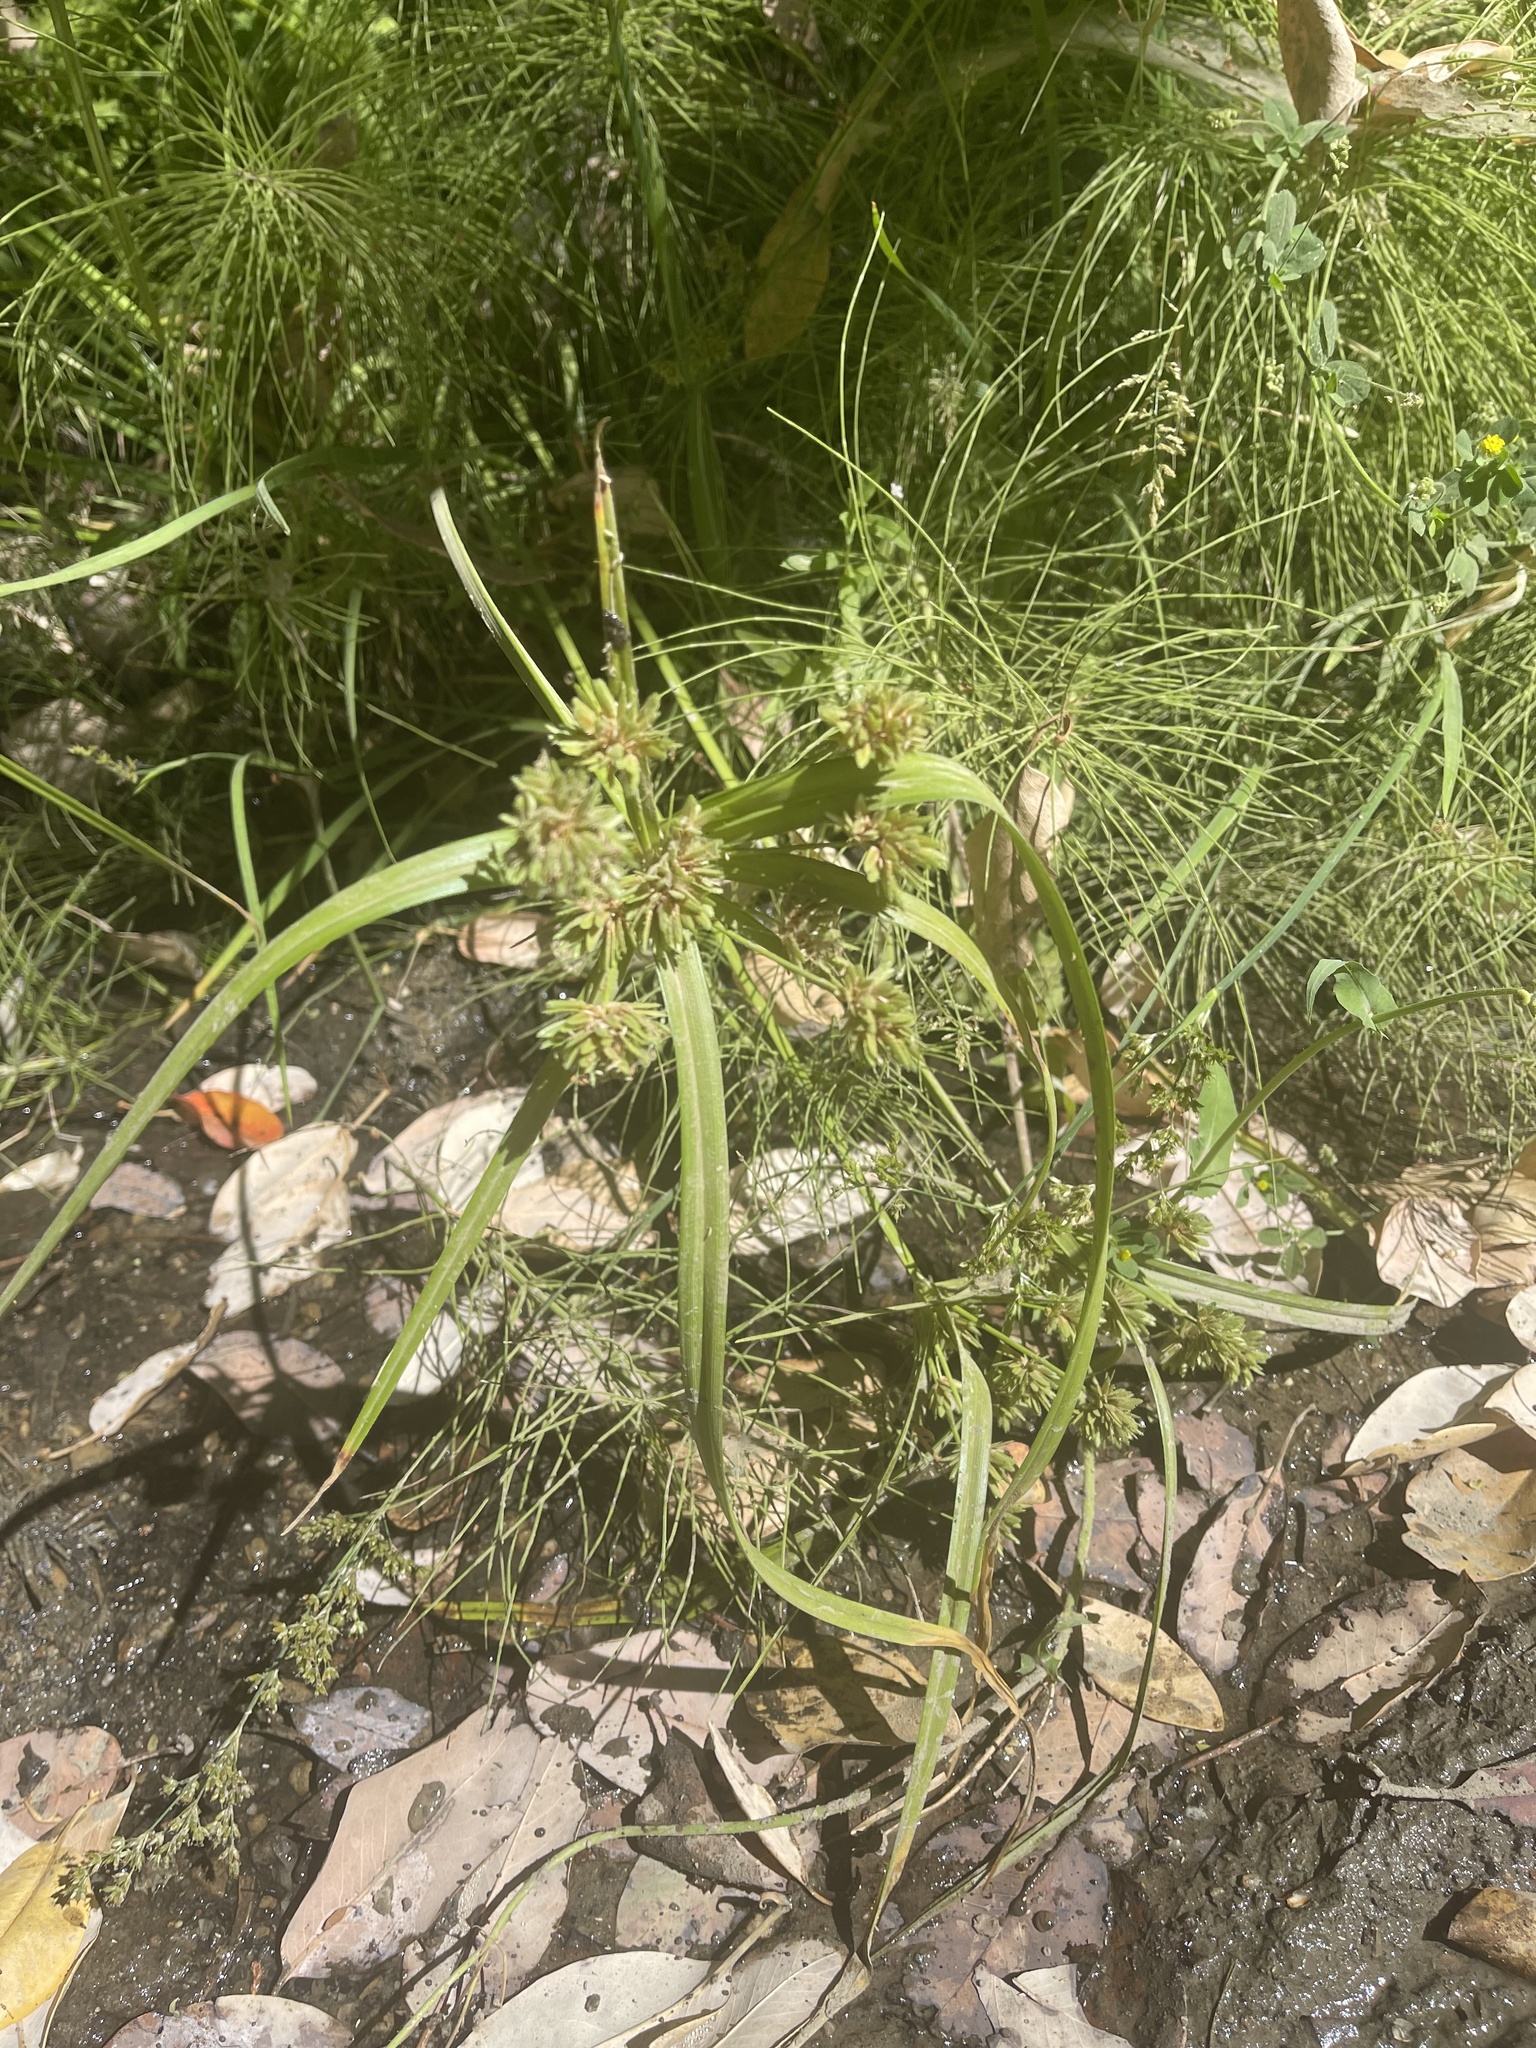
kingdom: Plantae
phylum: Tracheophyta
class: Liliopsida
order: Poales
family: Cyperaceae
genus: Cyperus
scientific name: Cyperus eragrostis
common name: Tall flatsedge
